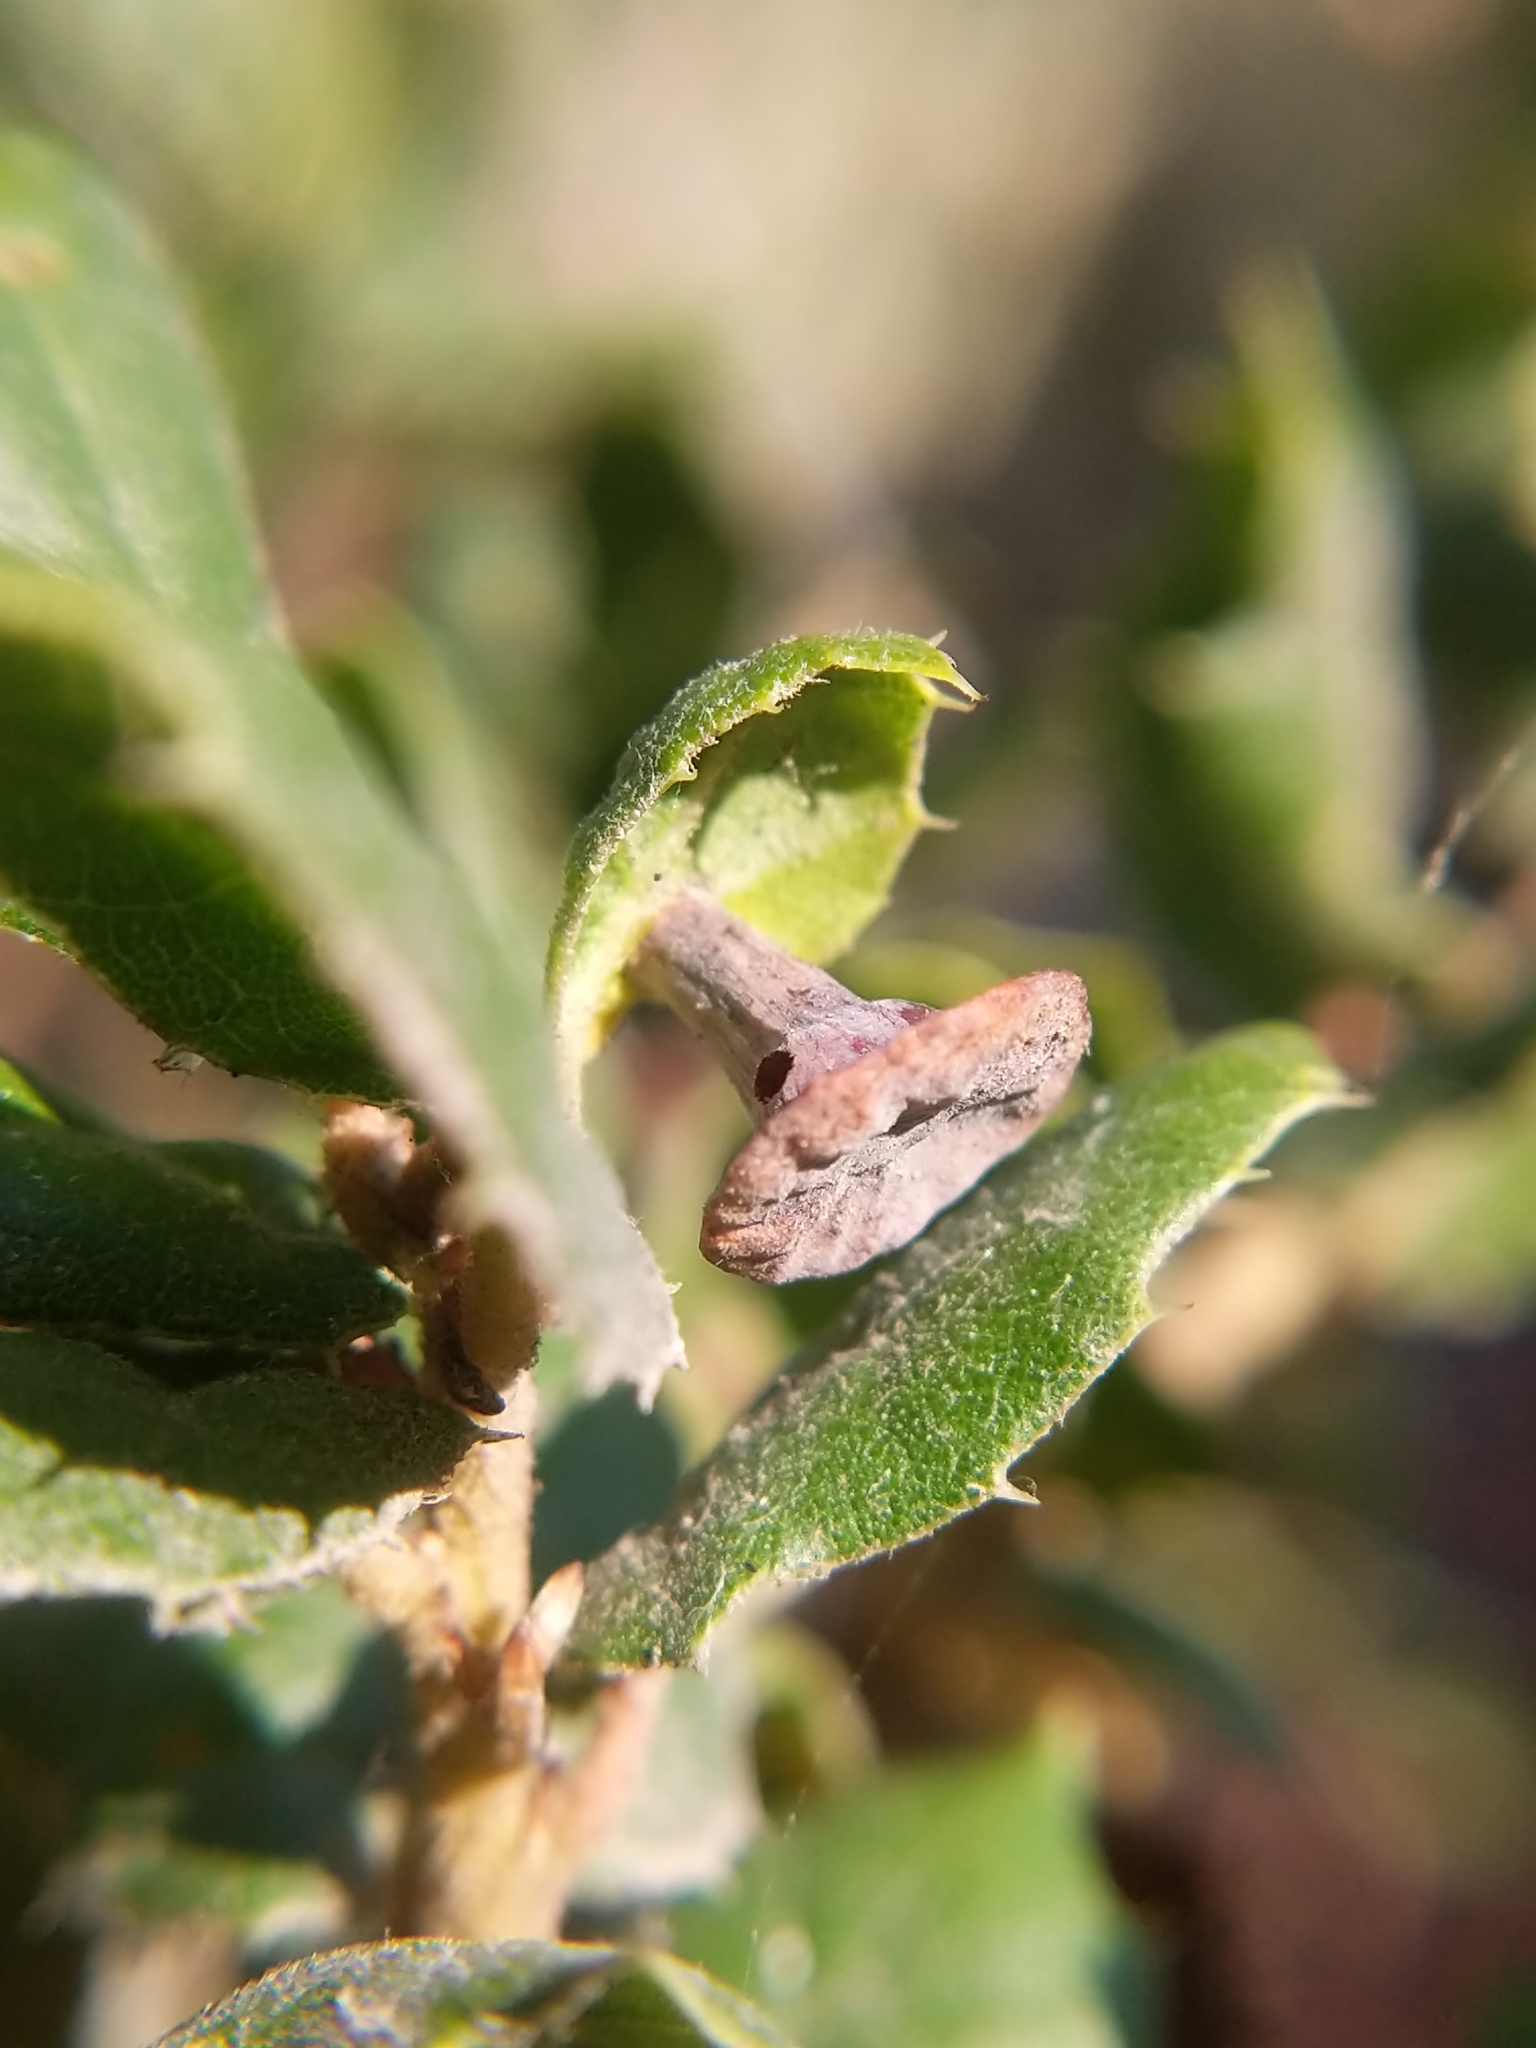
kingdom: Animalia
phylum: Arthropoda
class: Insecta
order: Hymenoptera
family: Cynipidae
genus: Amphibolips
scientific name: Amphibolips quercuspomiformis
